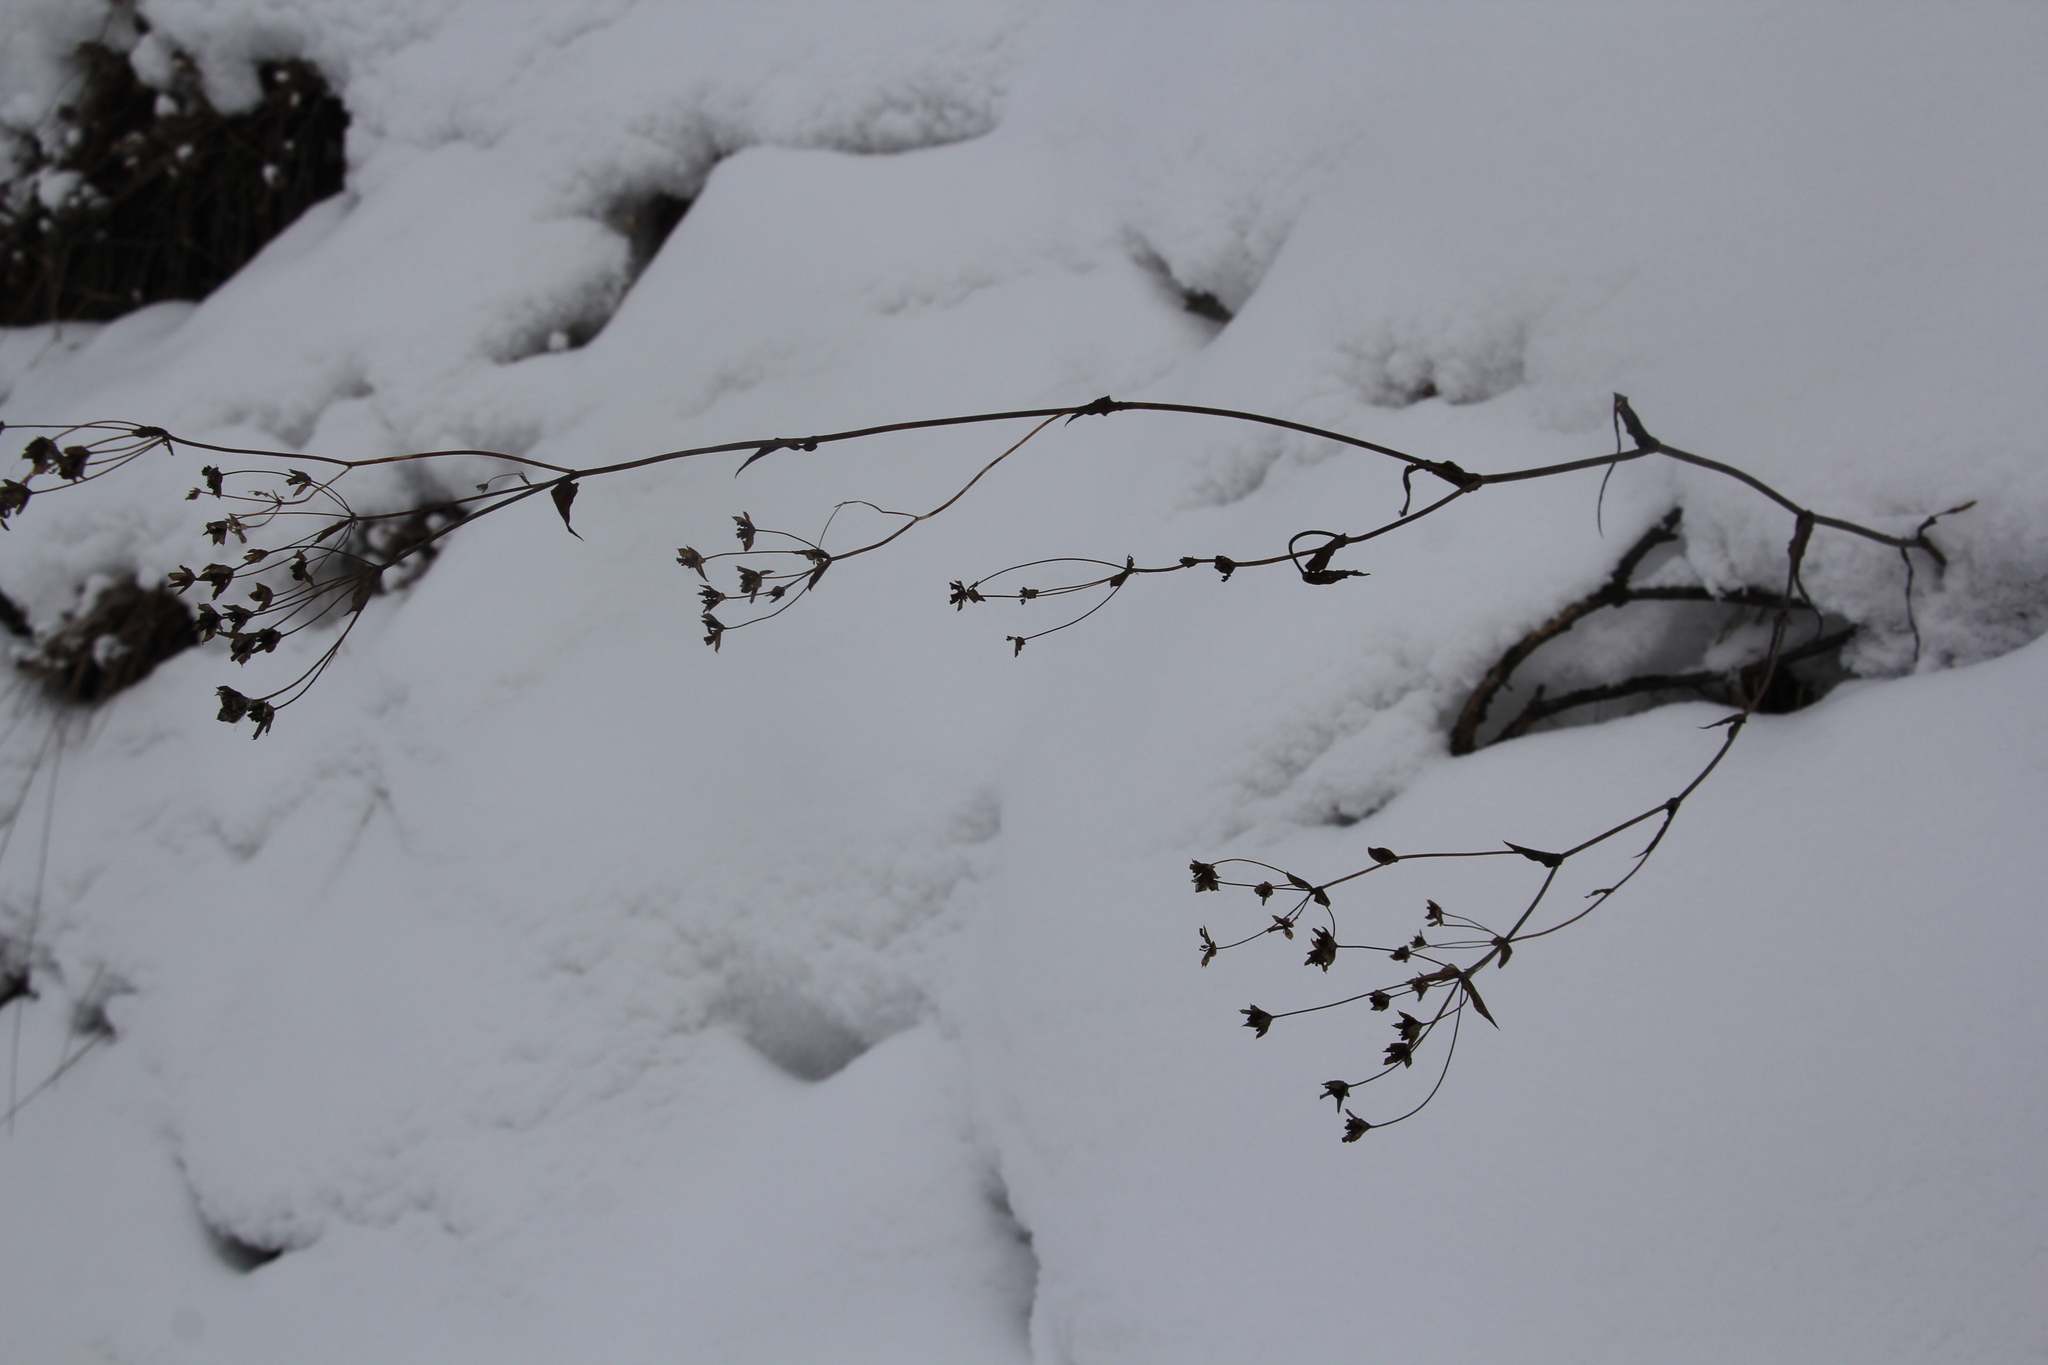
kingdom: Plantae
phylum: Tracheophyta
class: Magnoliopsida
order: Apiales
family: Apiaceae
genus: Bupleurum
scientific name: Bupleurum multinerve
